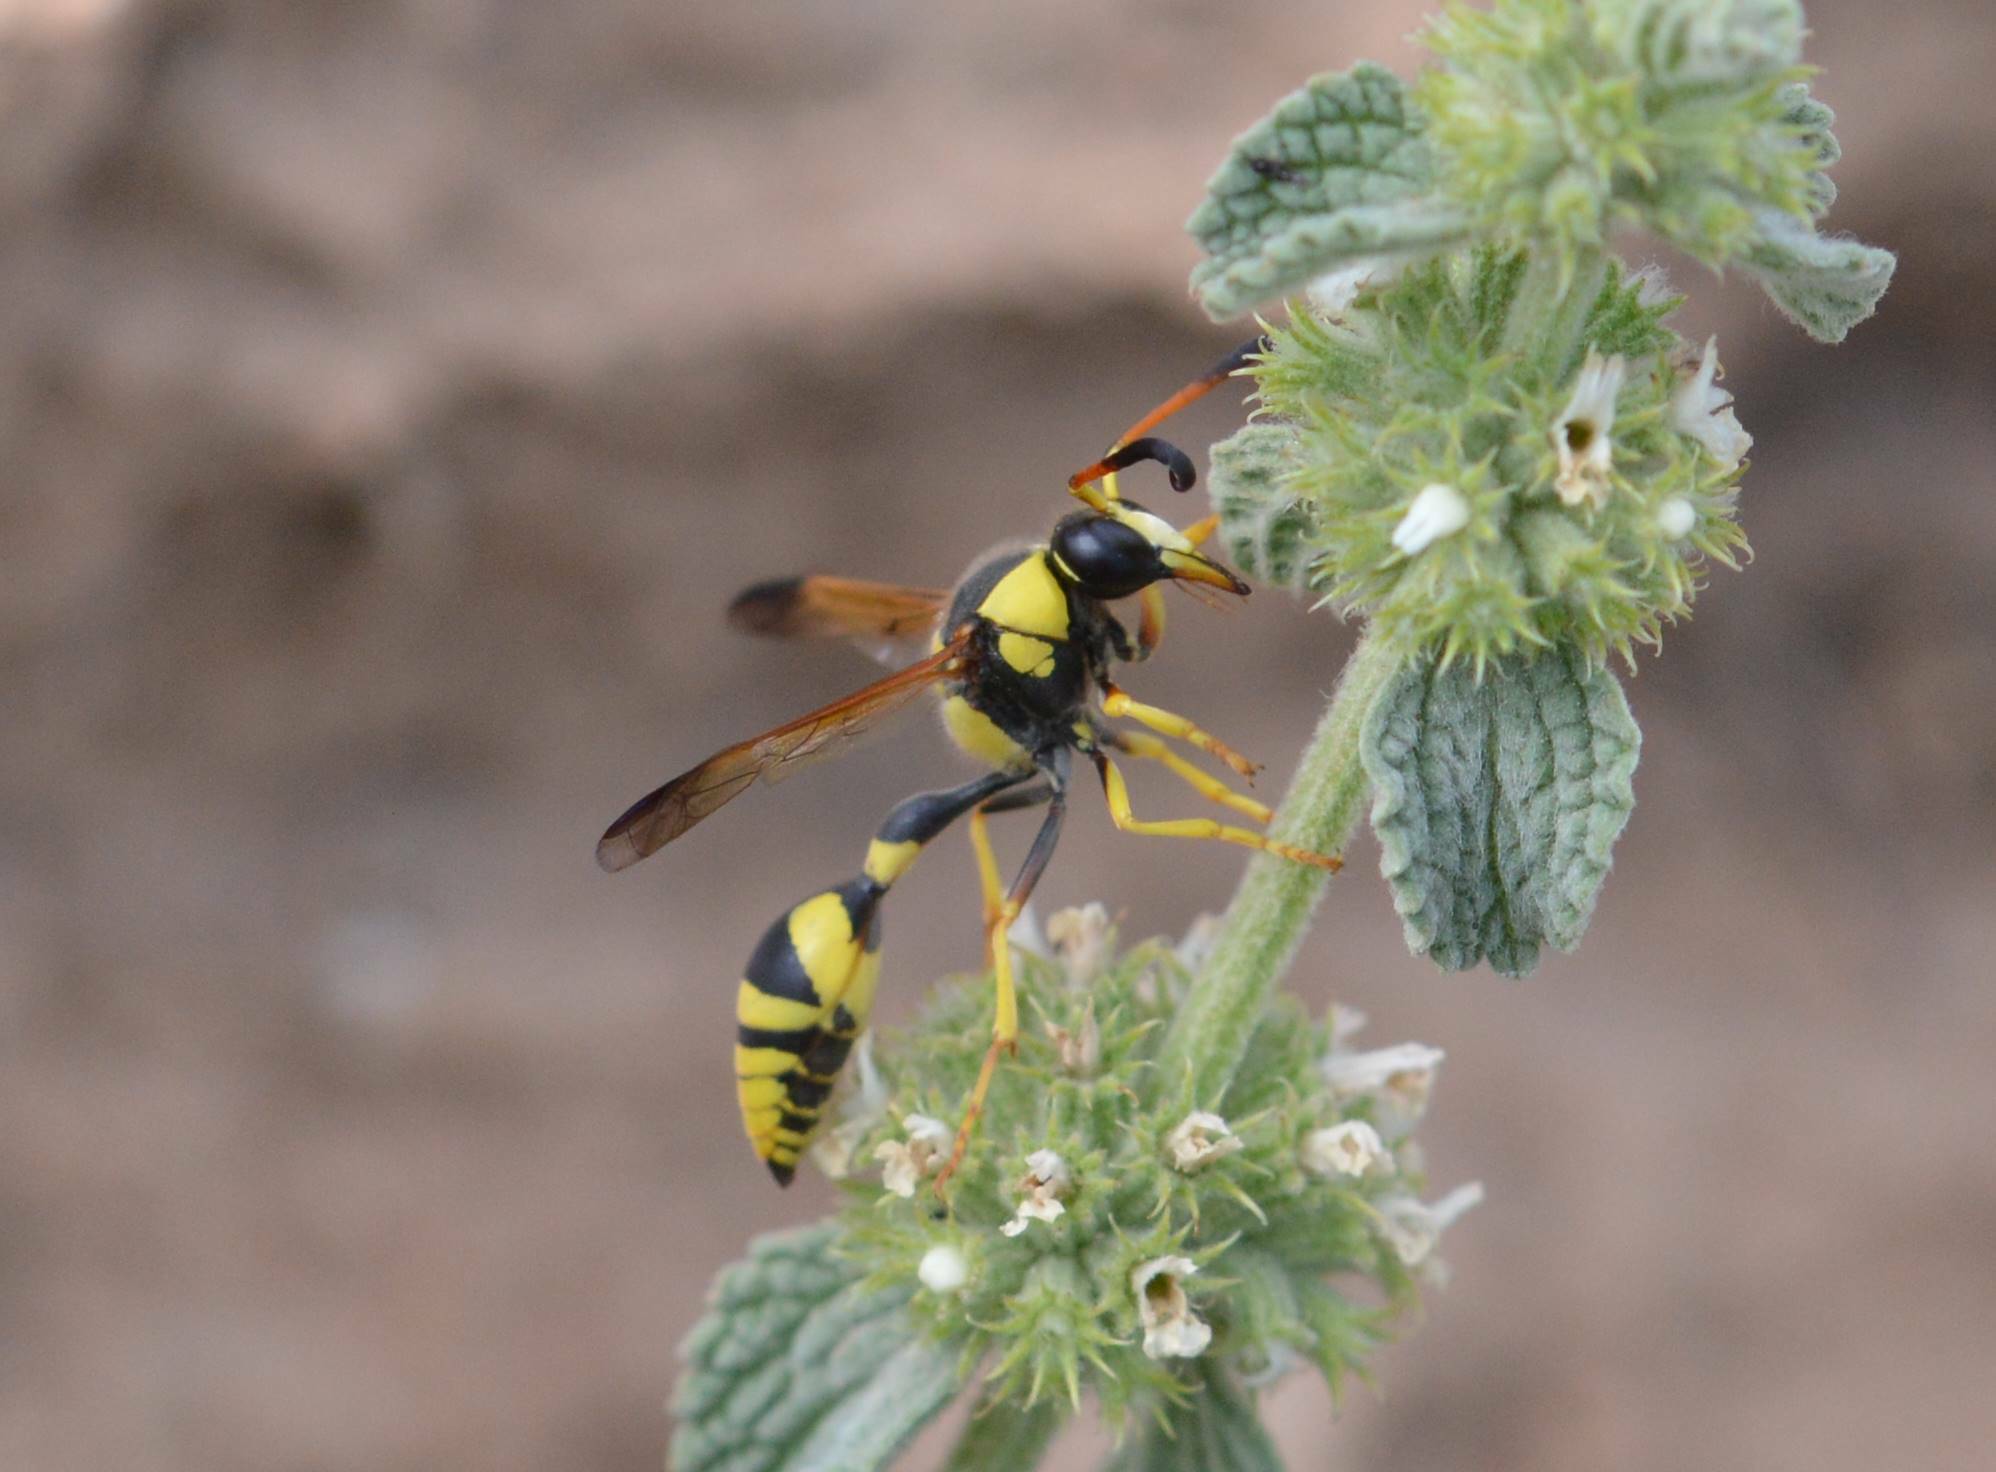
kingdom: Animalia
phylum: Arthropoda
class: Insecta
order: Hymenoptera
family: Eumenidae
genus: Katamenes
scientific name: Katamenes libycus
